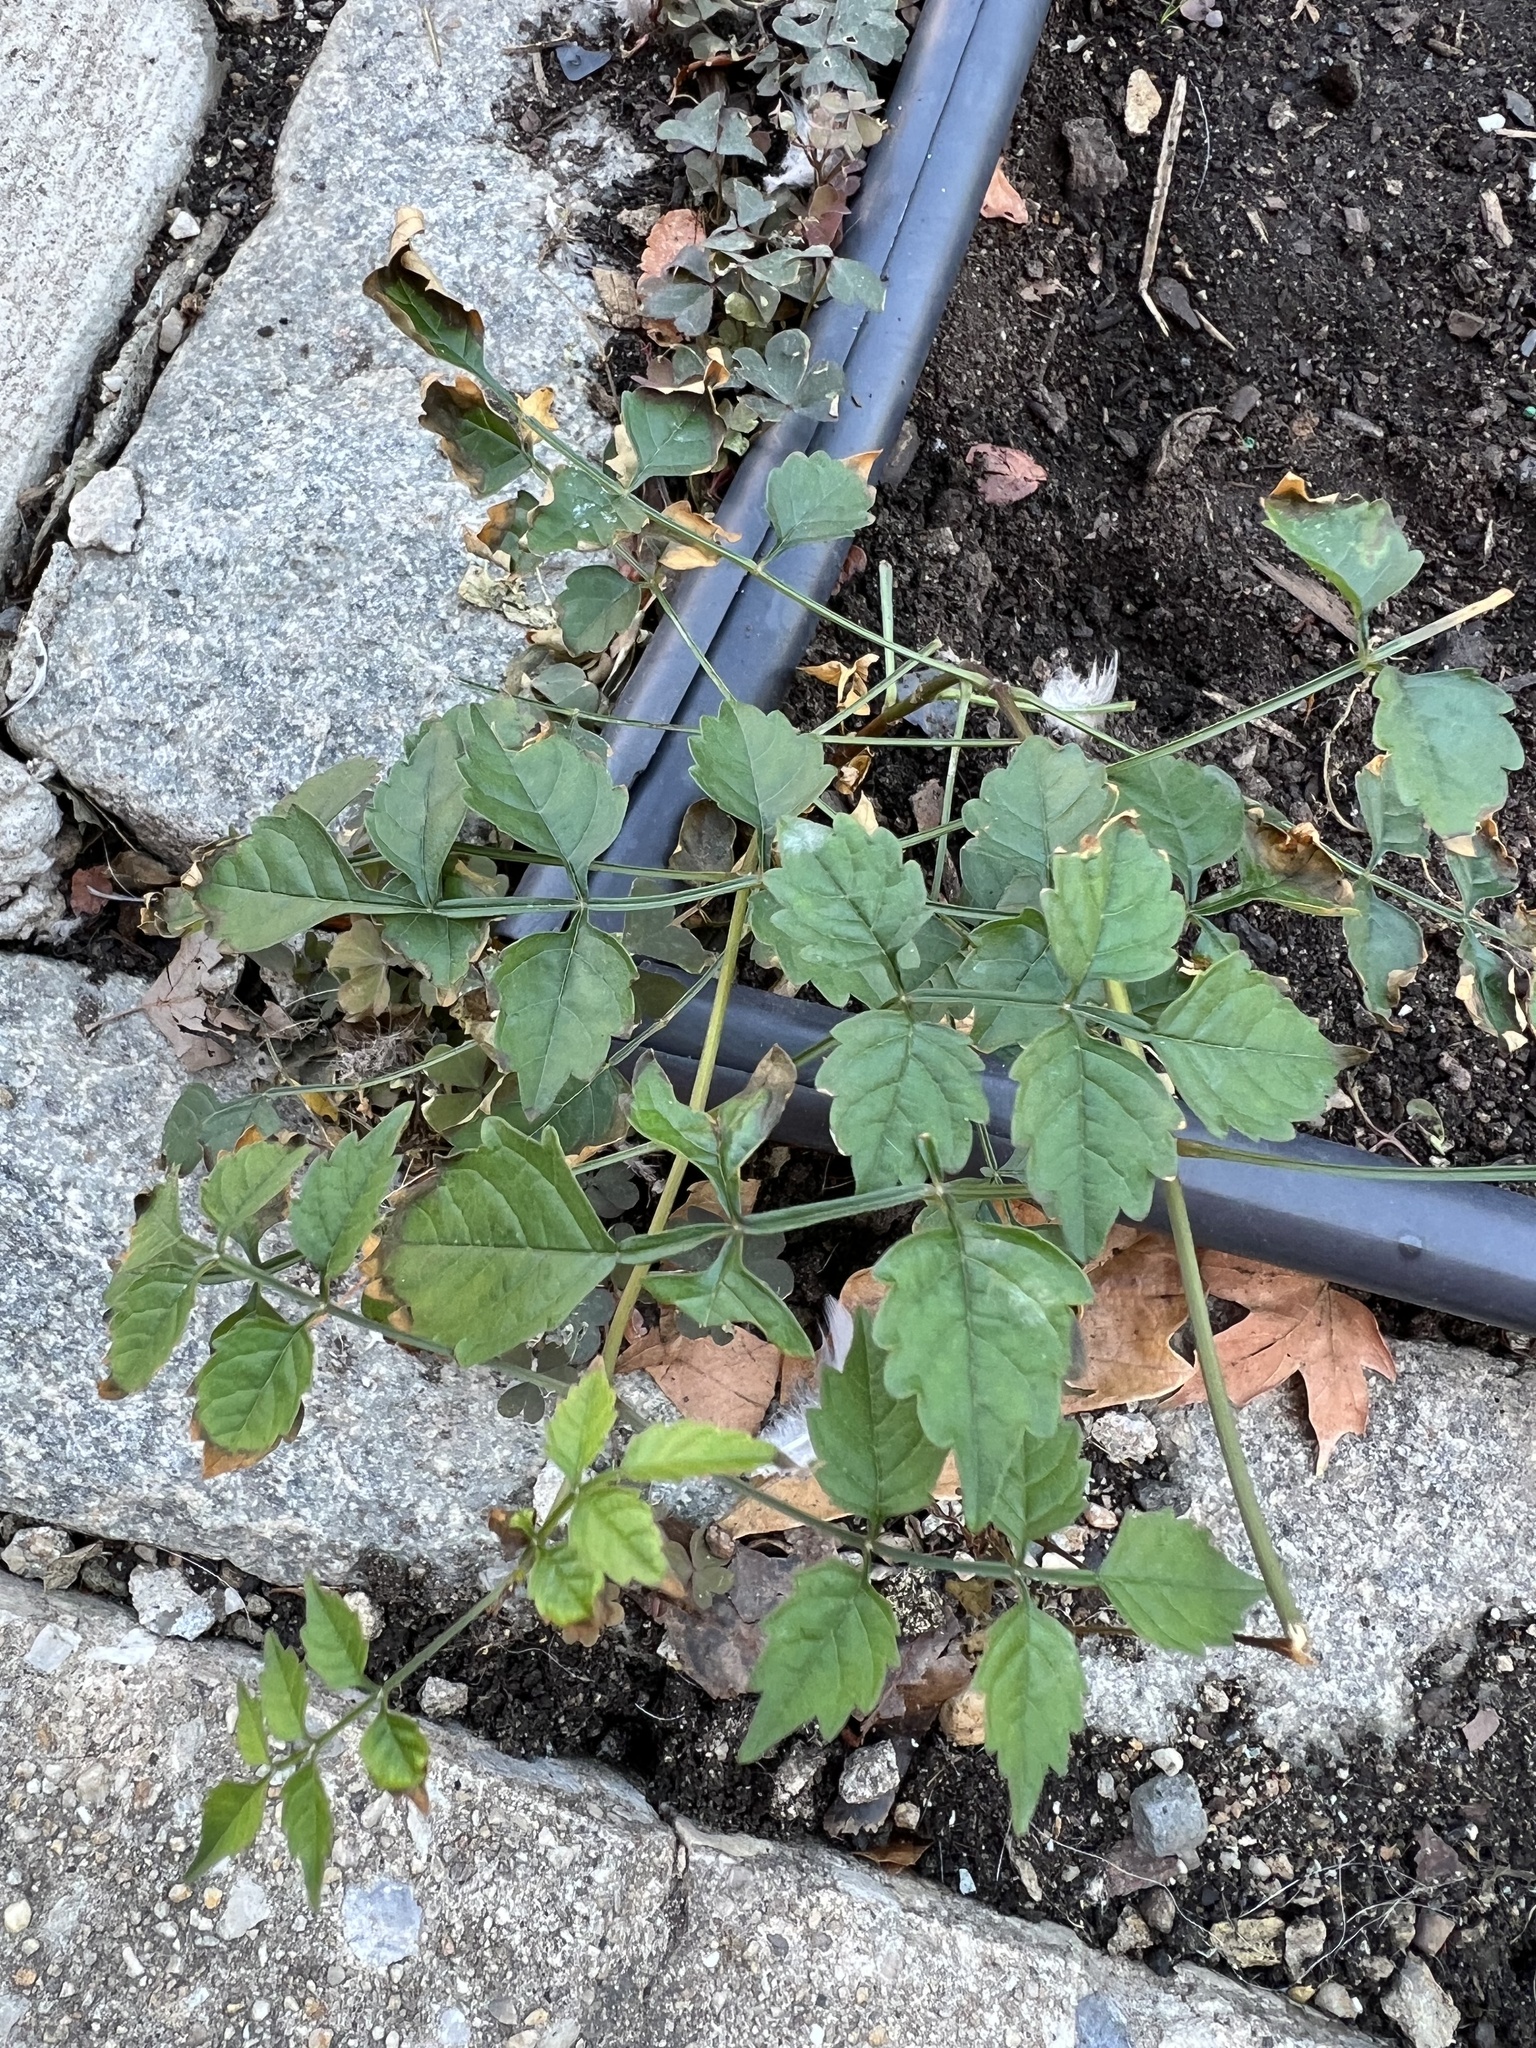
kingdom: Plantae
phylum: Tracheophyta
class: Magnoliopsida
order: Lamiales
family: Bignoniaceae
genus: Campsis
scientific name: Campsis radicans
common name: Trumpet-creeper
